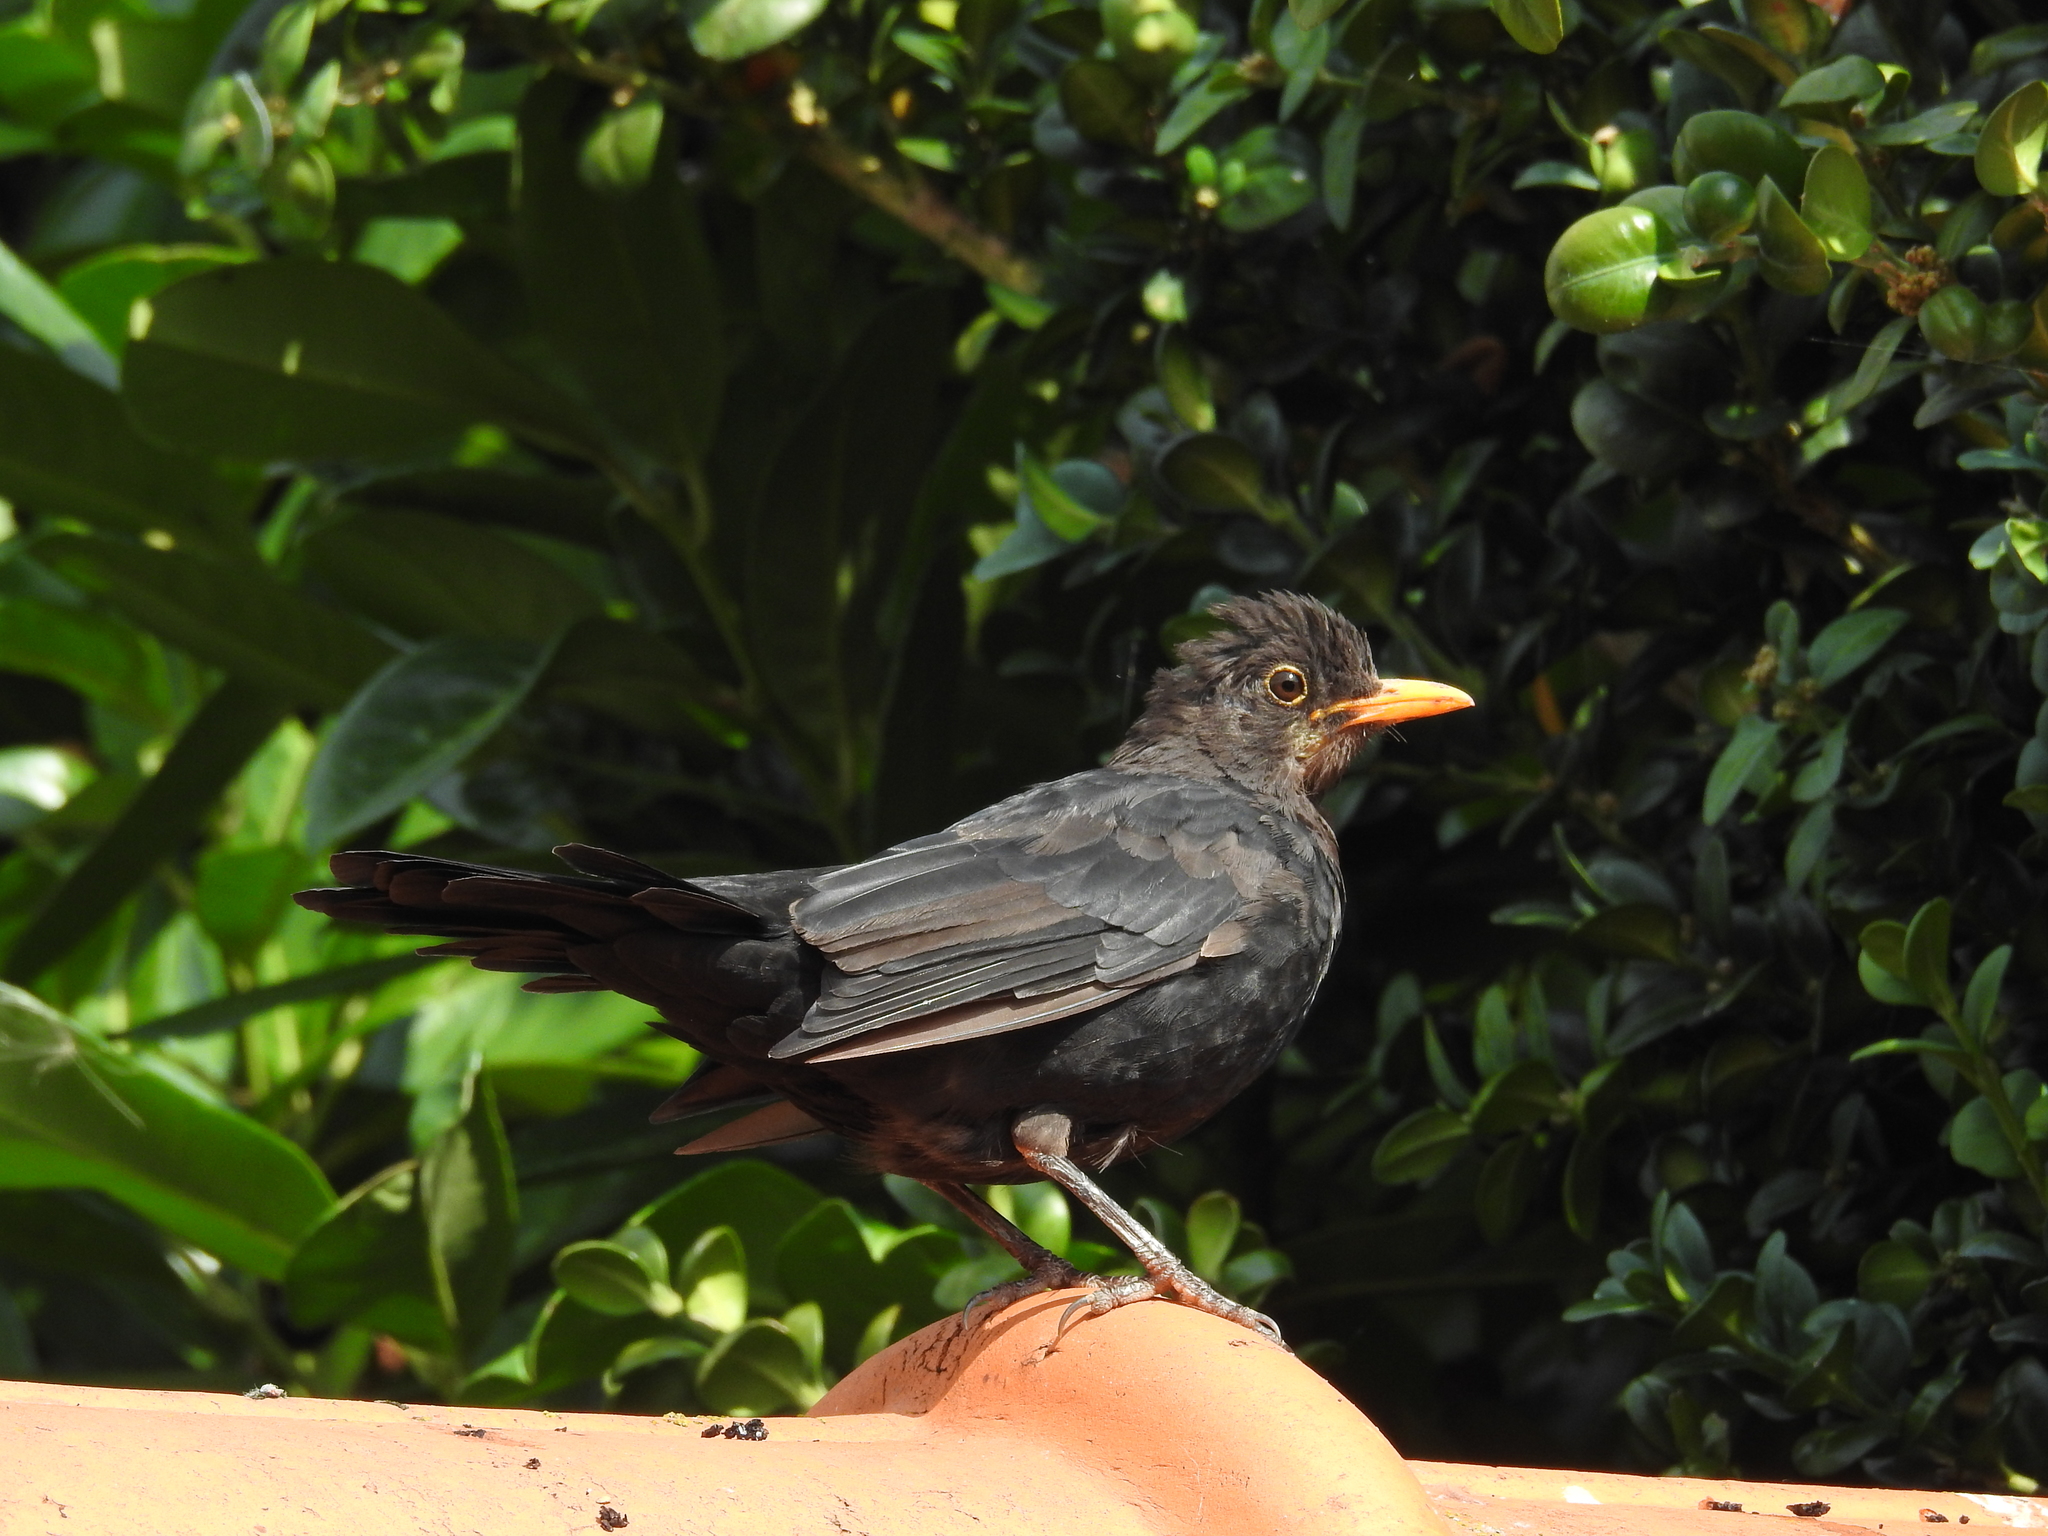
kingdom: Animalia
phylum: Chordata
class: Aves
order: Passeriformes
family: Turdidae
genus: Turdus
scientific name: Turdus merula
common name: Common blackbird
